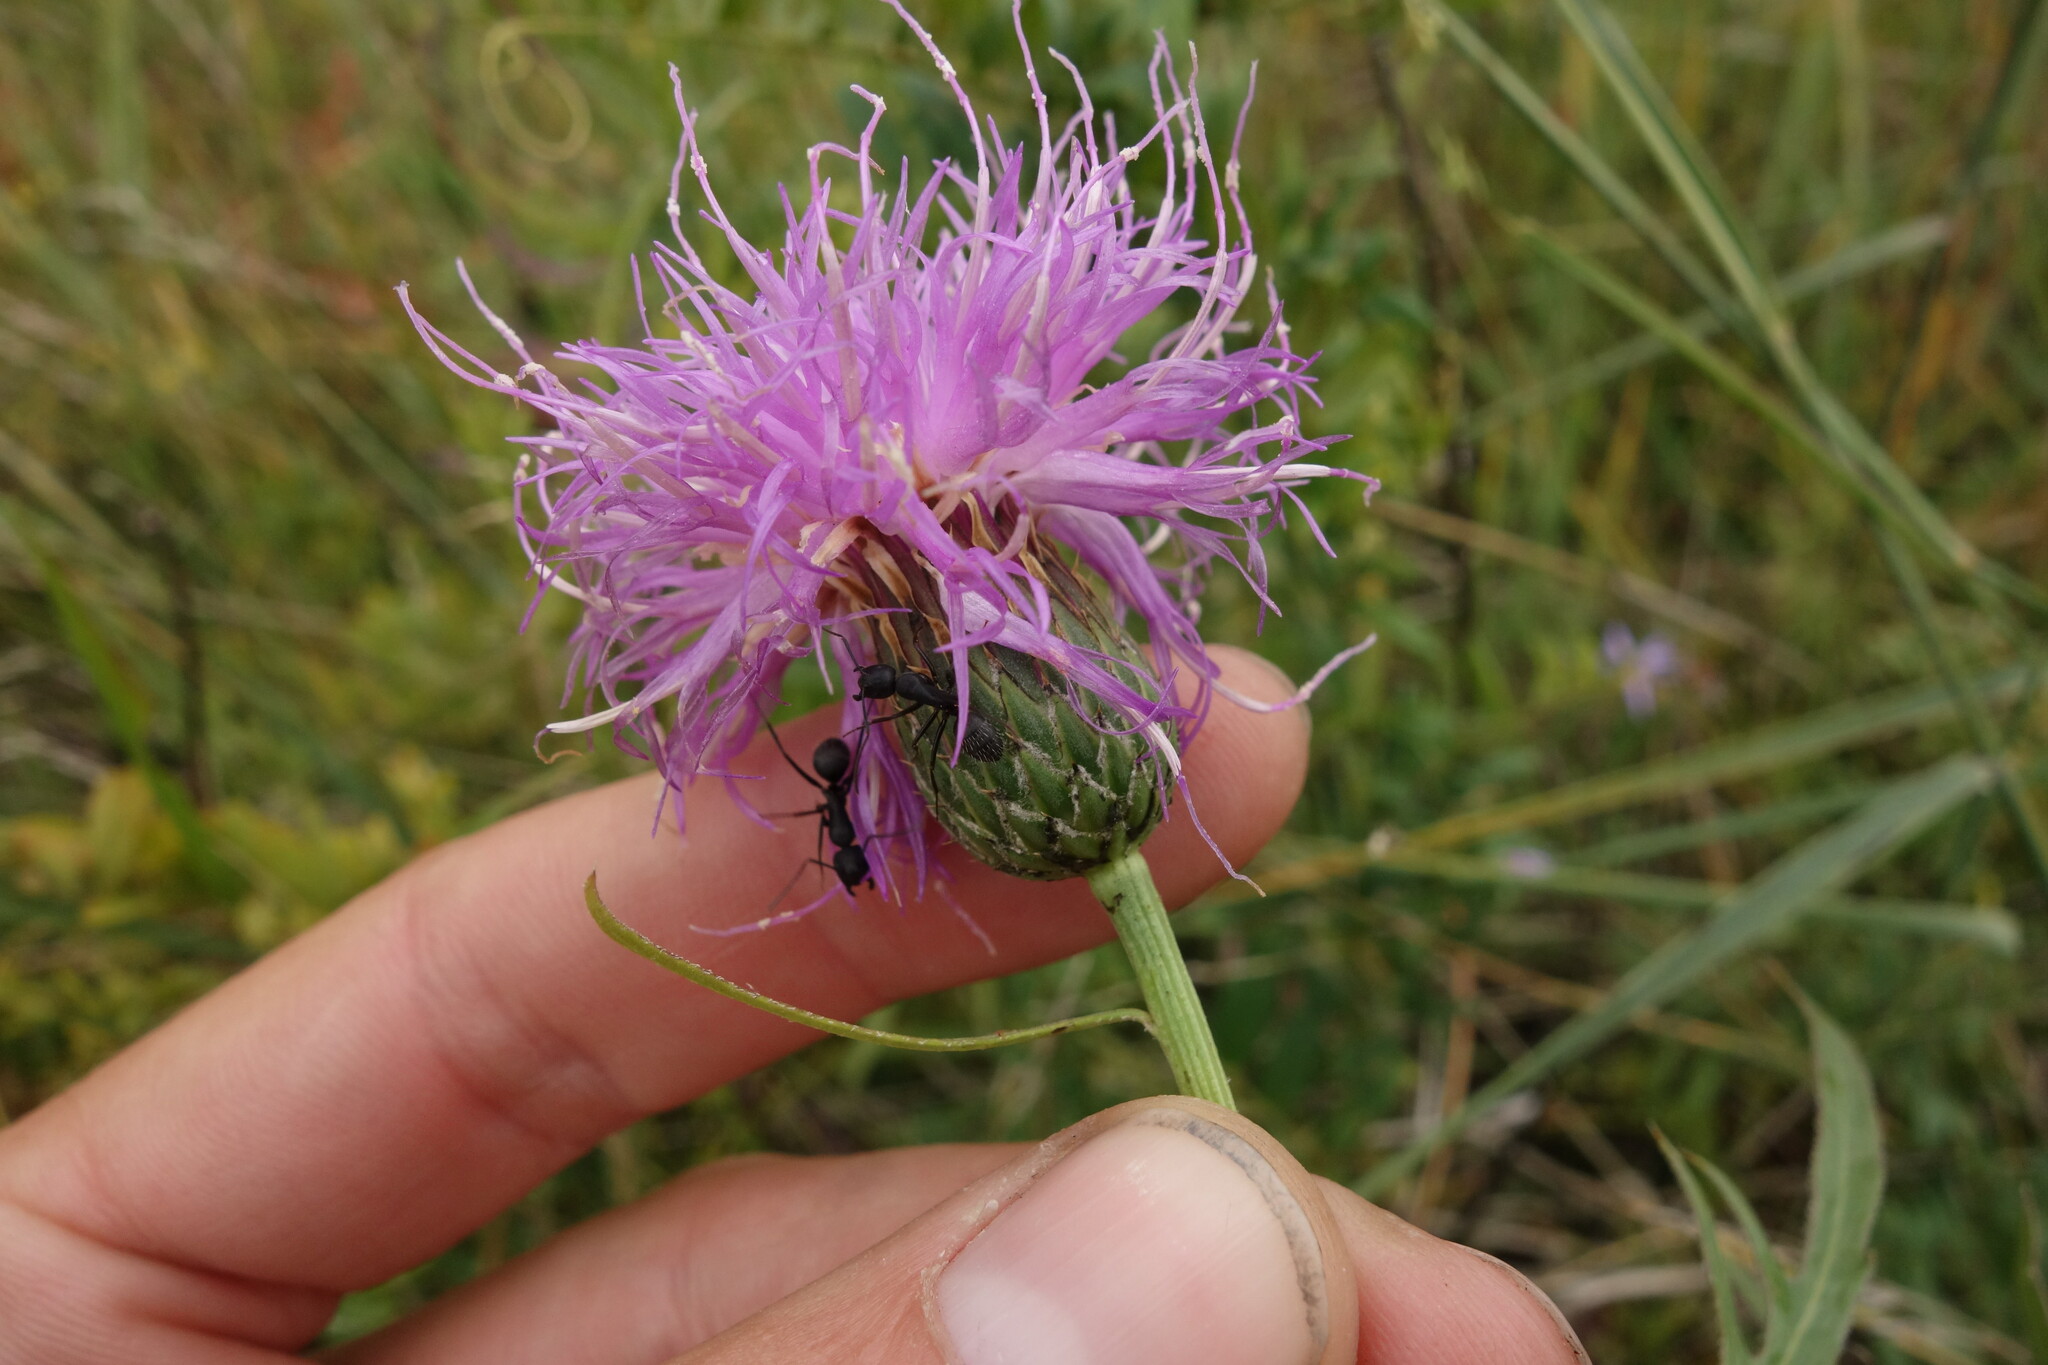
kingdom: Plantae
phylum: Tracheophyta
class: Magnoliopsida
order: Asterales
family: Asteraceae
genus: Klasea
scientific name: Klasea centauroides
